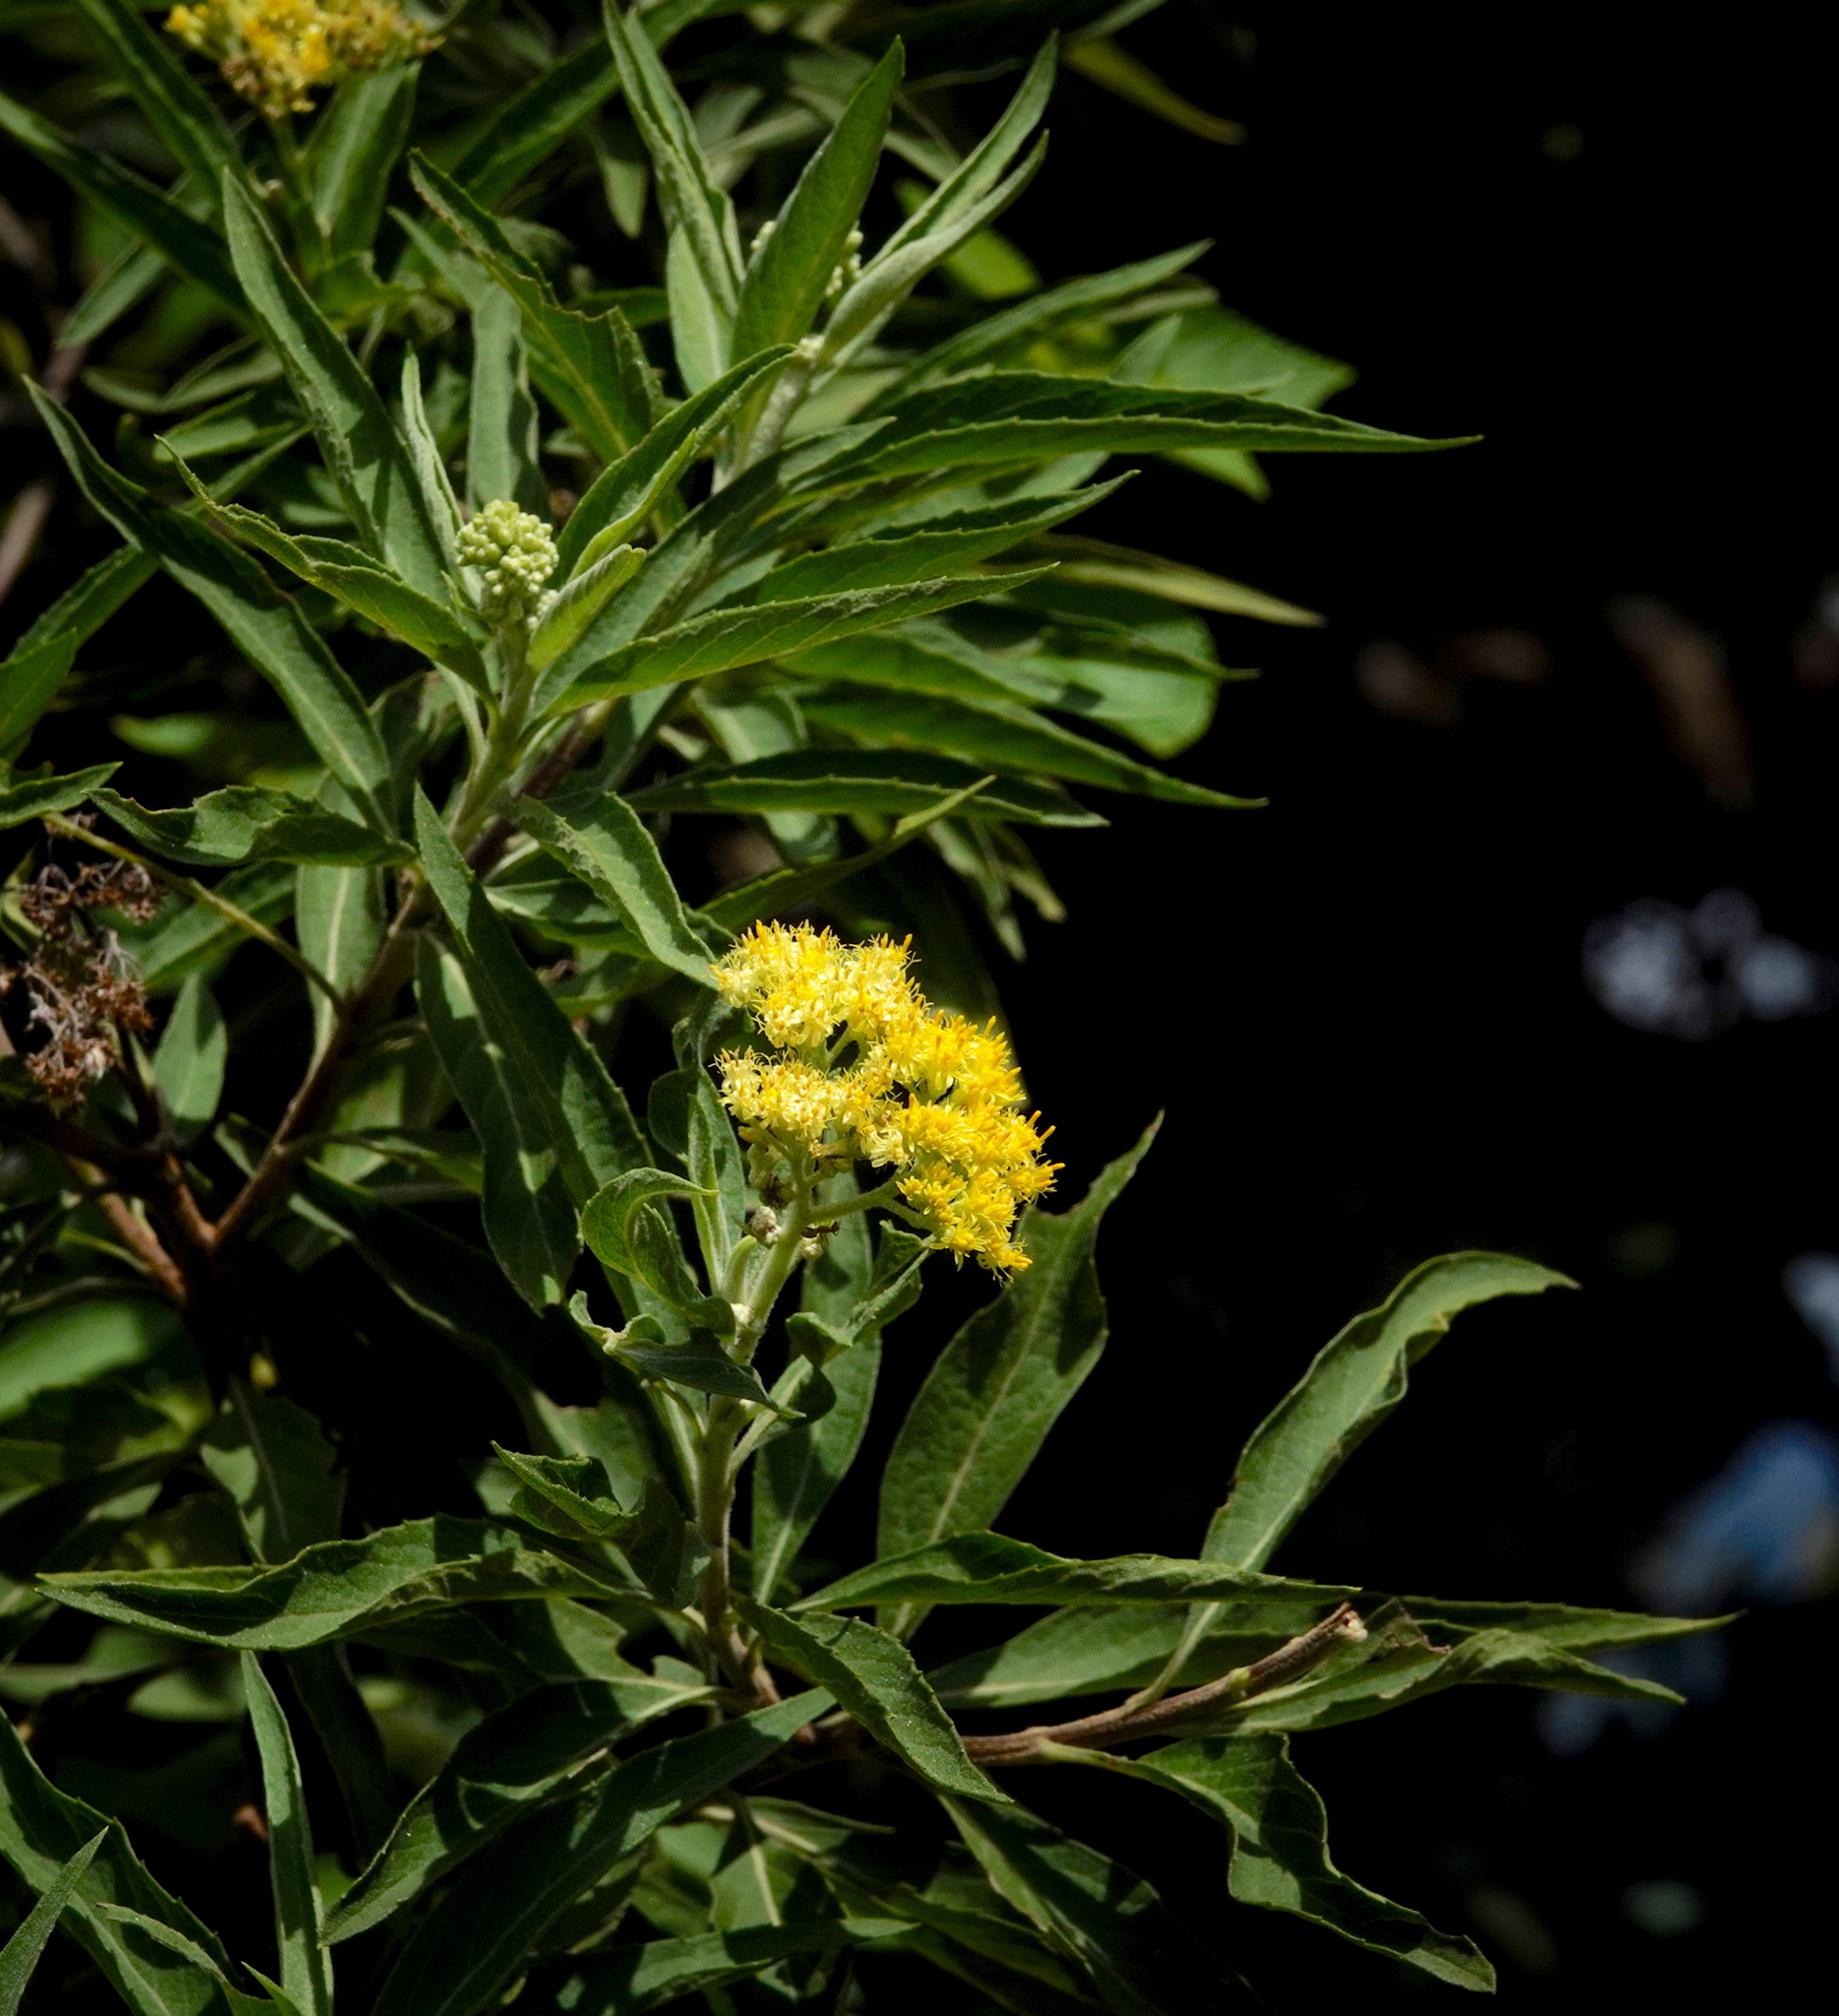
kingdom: Plantae
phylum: Tracheophyta
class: Magnoliopsida
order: Asterales
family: Asteraceae
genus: Psiadia
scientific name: Psiadia ceylanica
